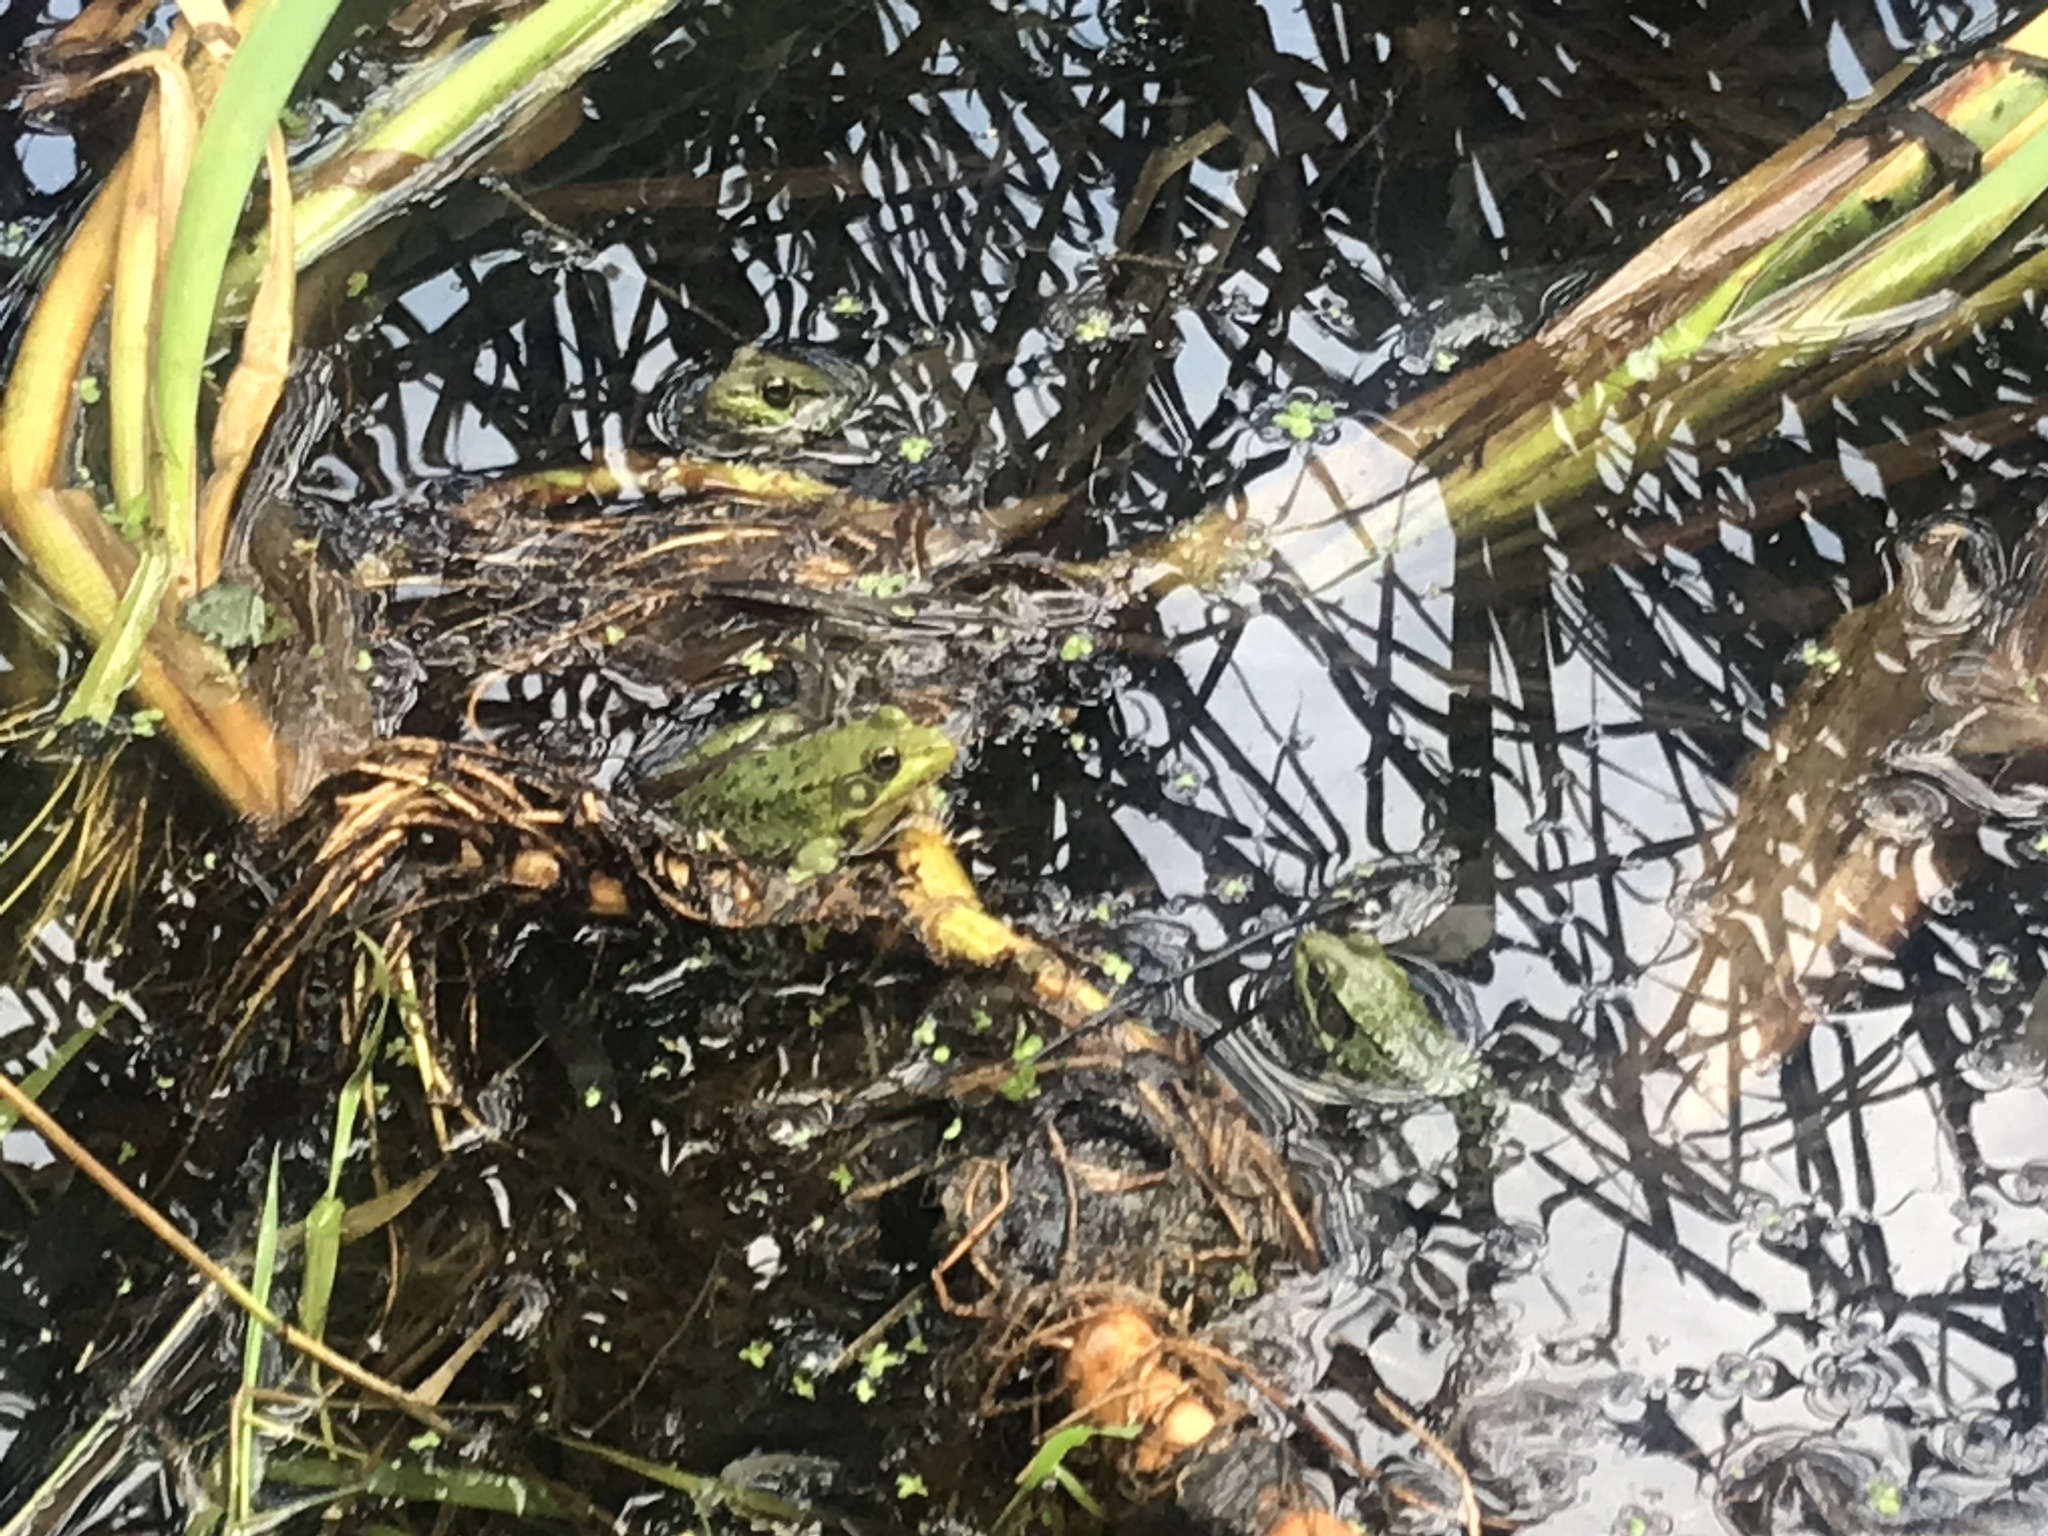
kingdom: Animalia
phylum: Chordata
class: Amphibia
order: Anura
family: Ranidae
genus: Lithobates
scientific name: Lithobates clamitans
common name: Green frog
